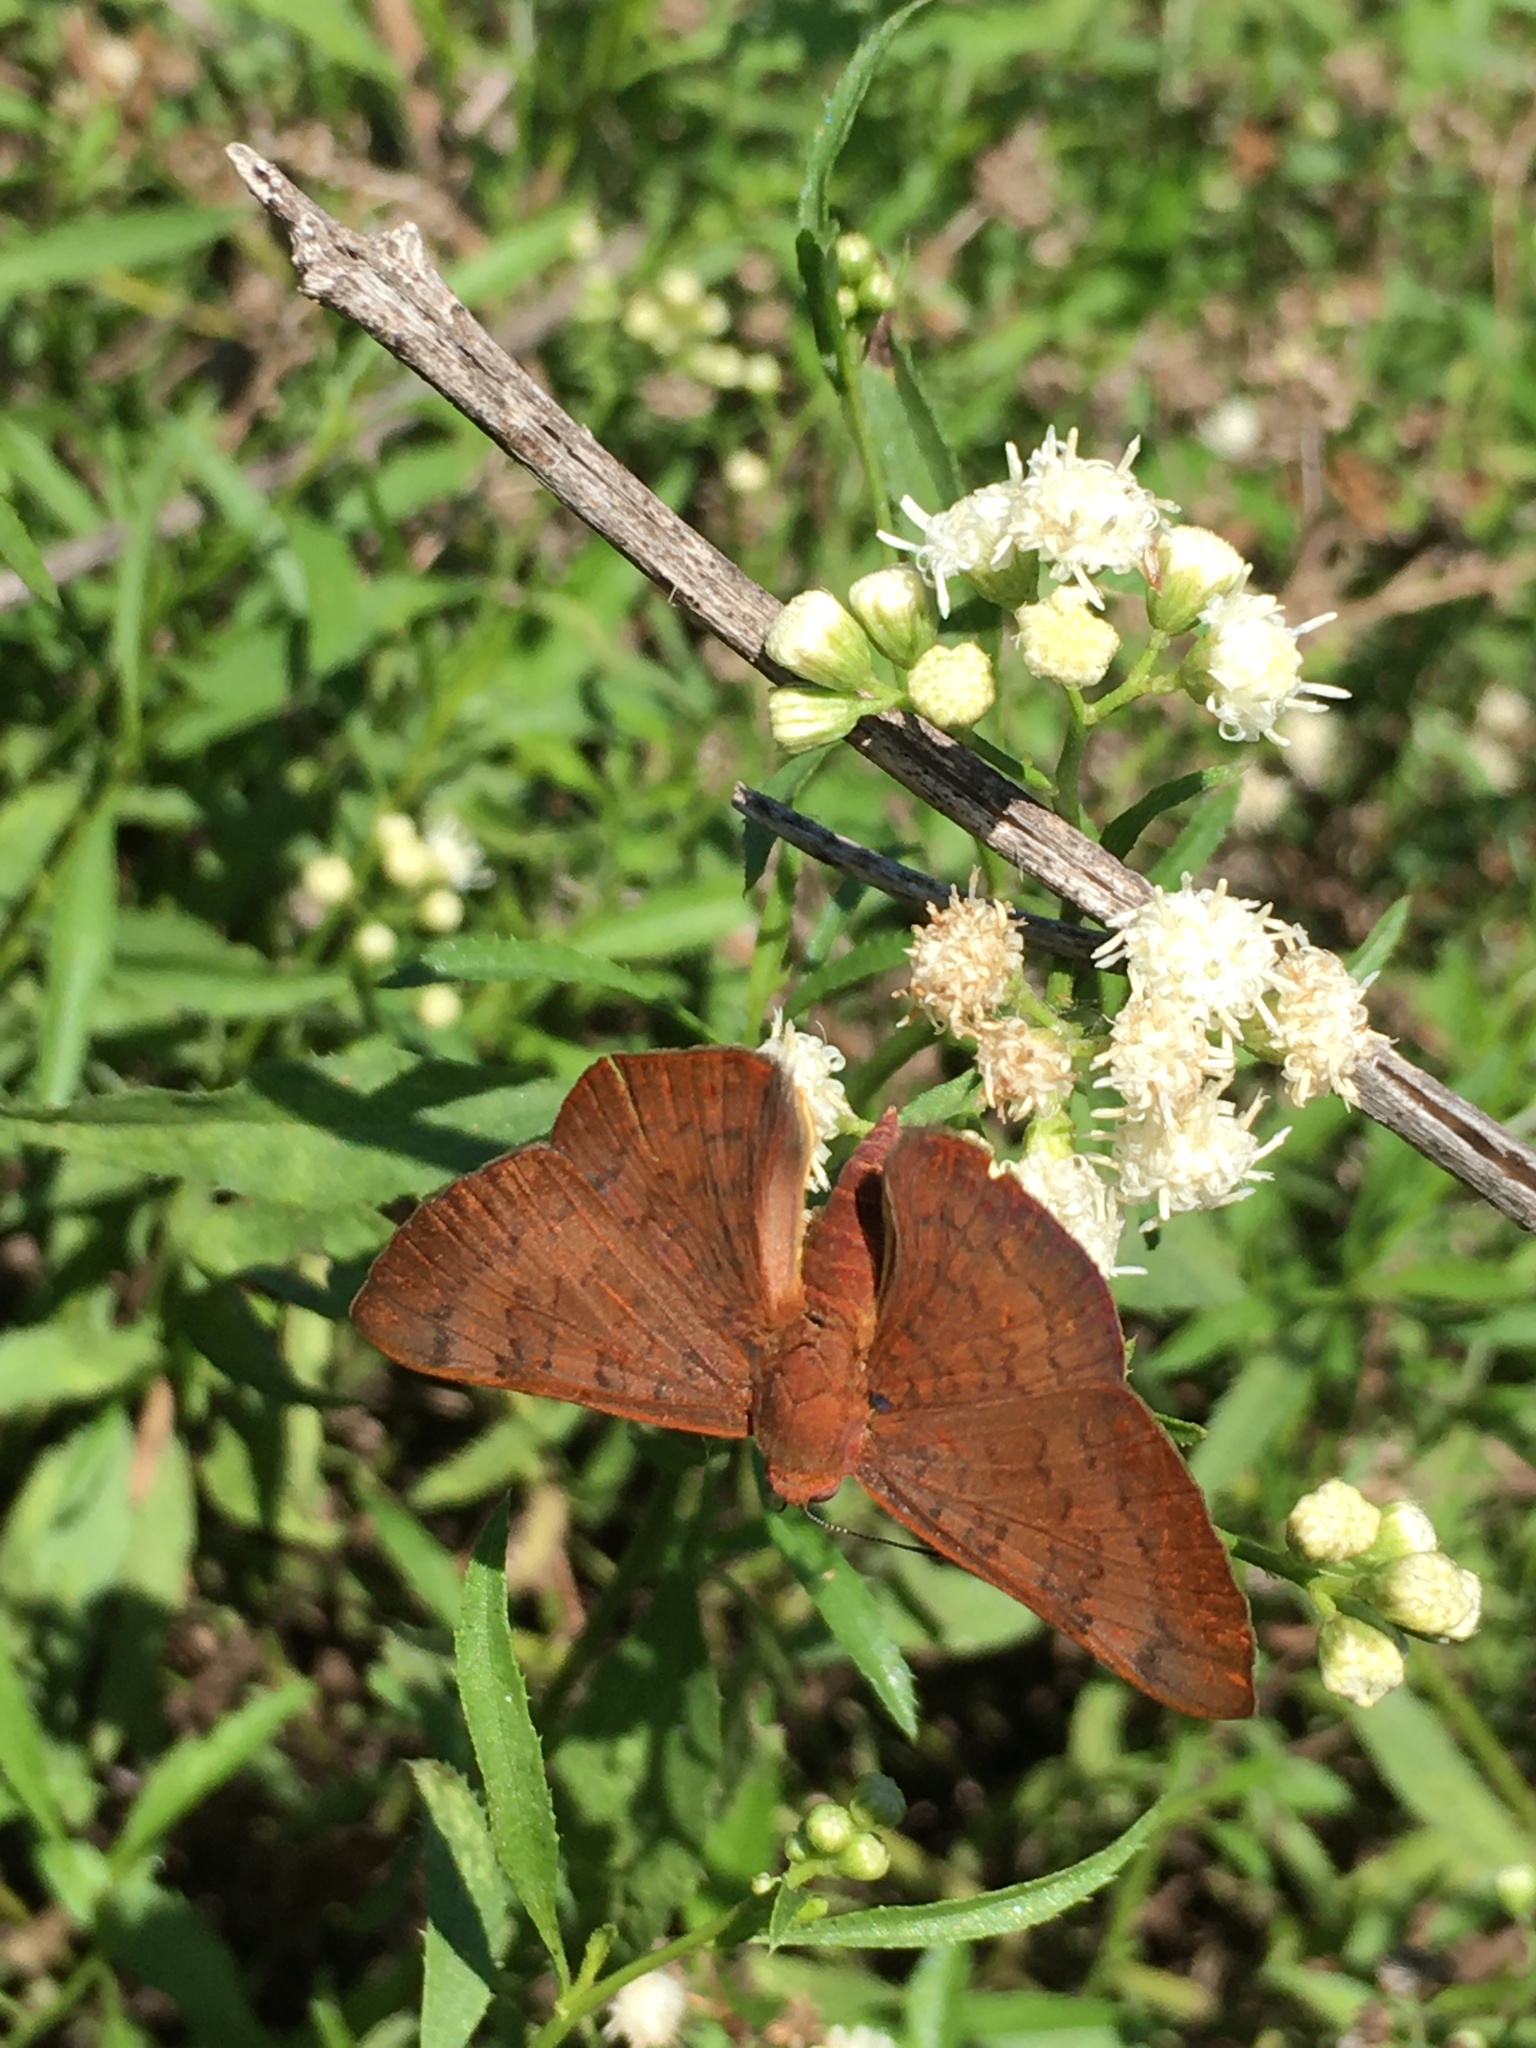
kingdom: Animalia
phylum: Arthropoda
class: Insecta
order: Lepidoptera
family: Lycaenidae
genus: Emesis
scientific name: Emesis russula
